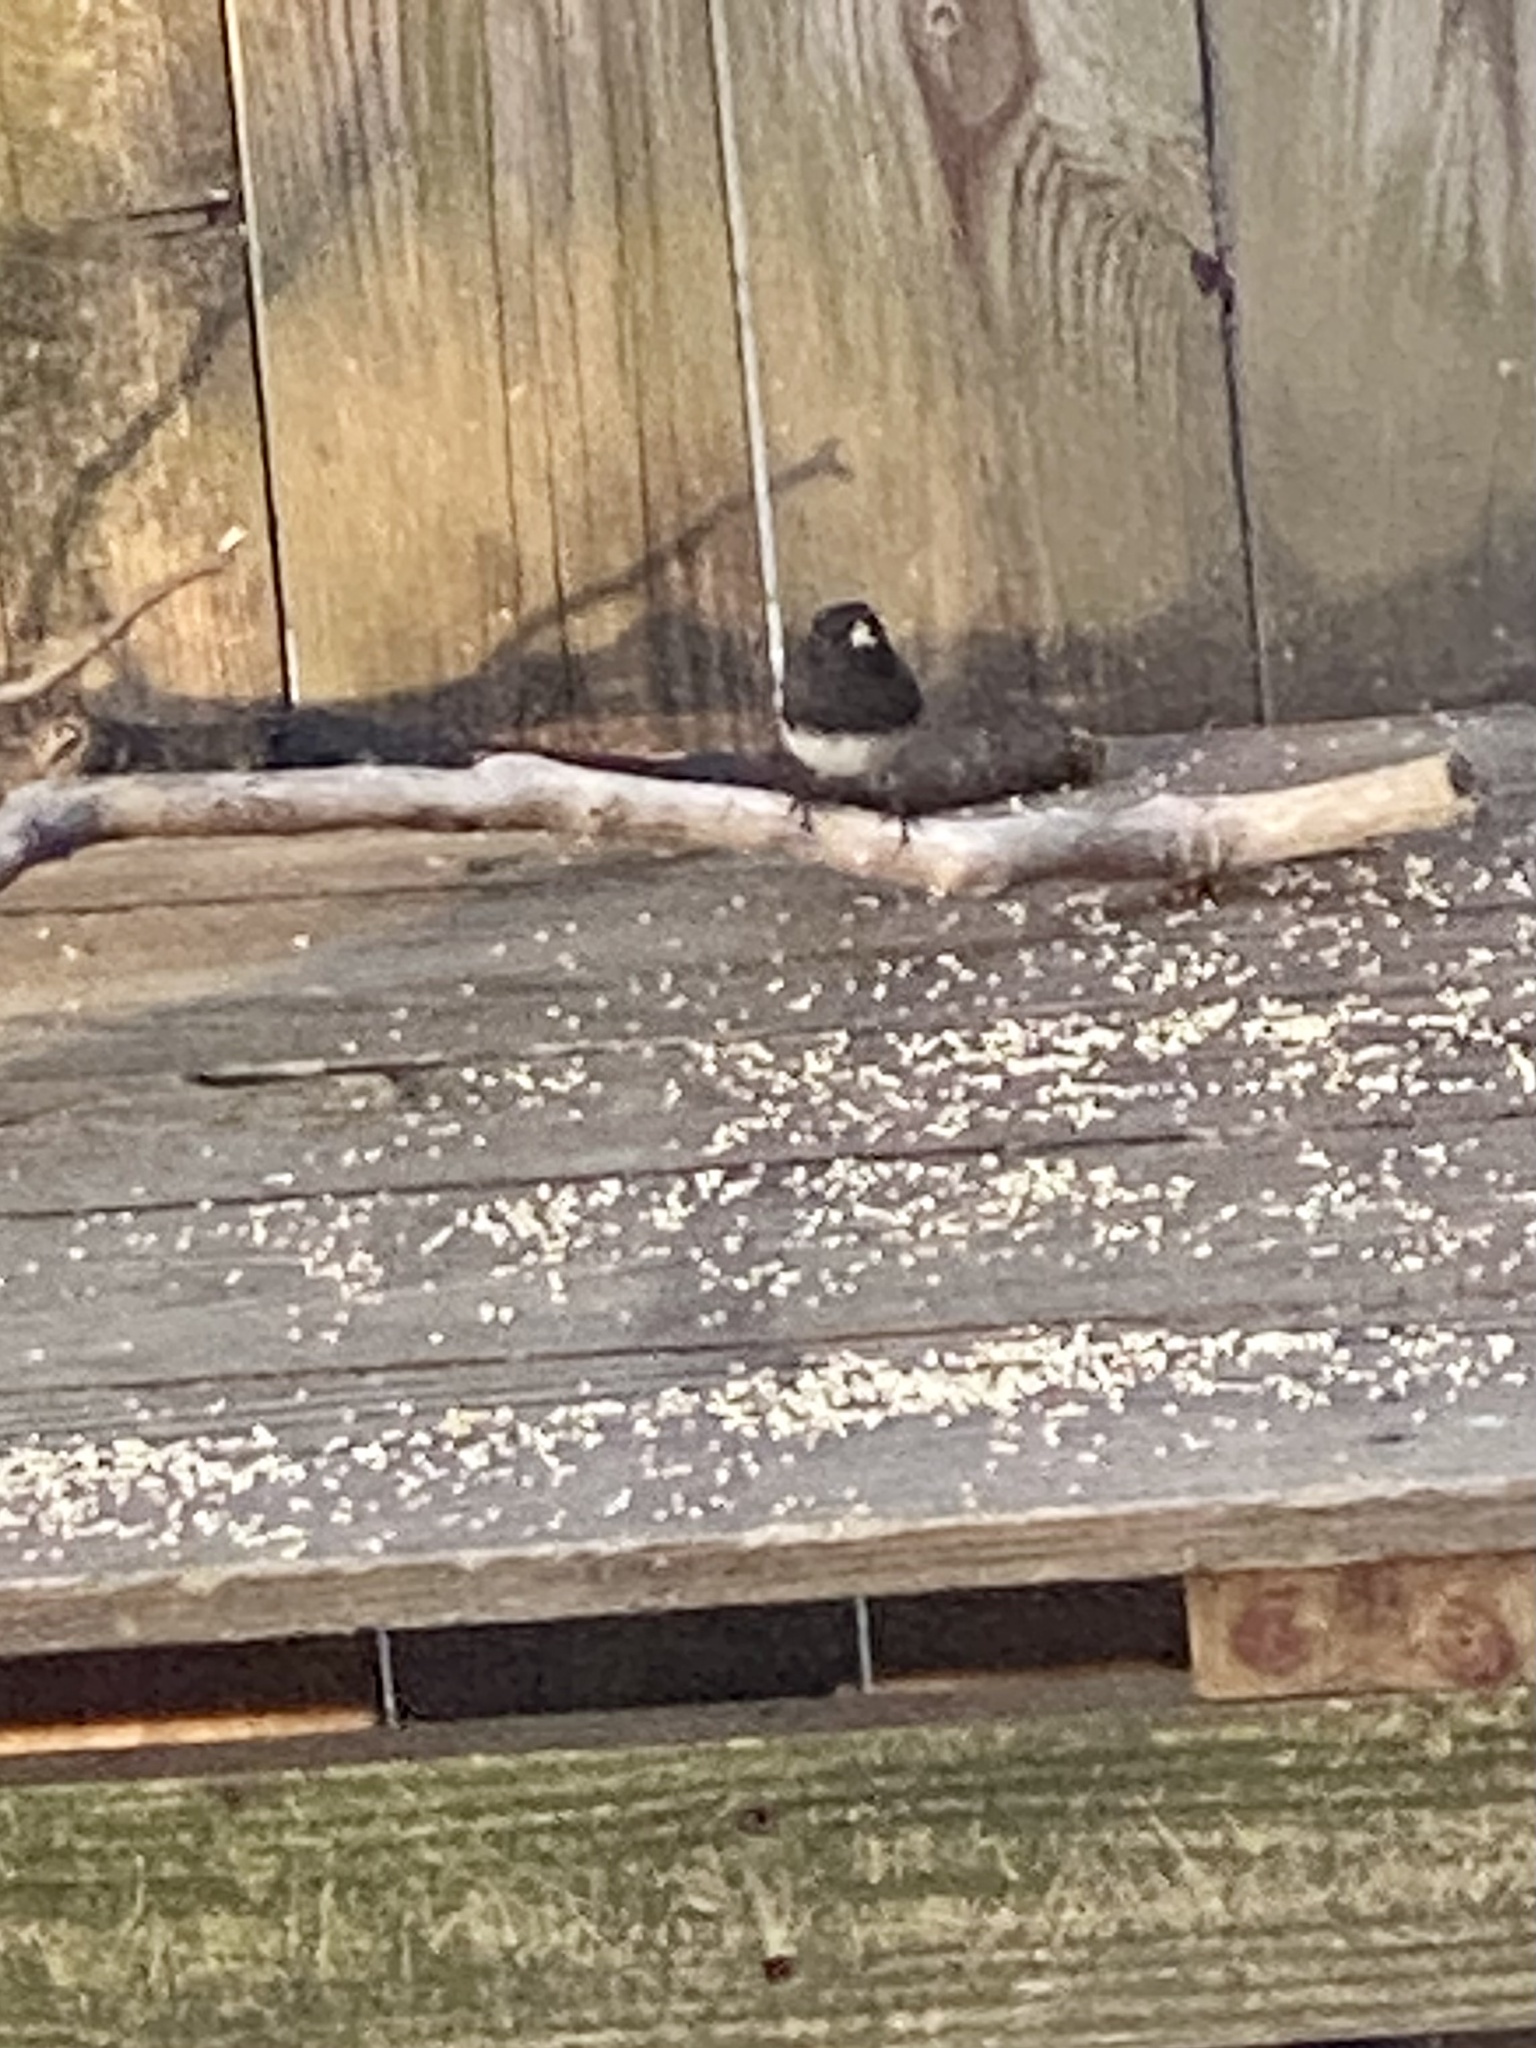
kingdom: Animalia
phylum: Chordata
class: Aves
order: Passeriformes
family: Passerellidae
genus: Junco
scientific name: Junco hyemalis
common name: Dark-eyed junco
